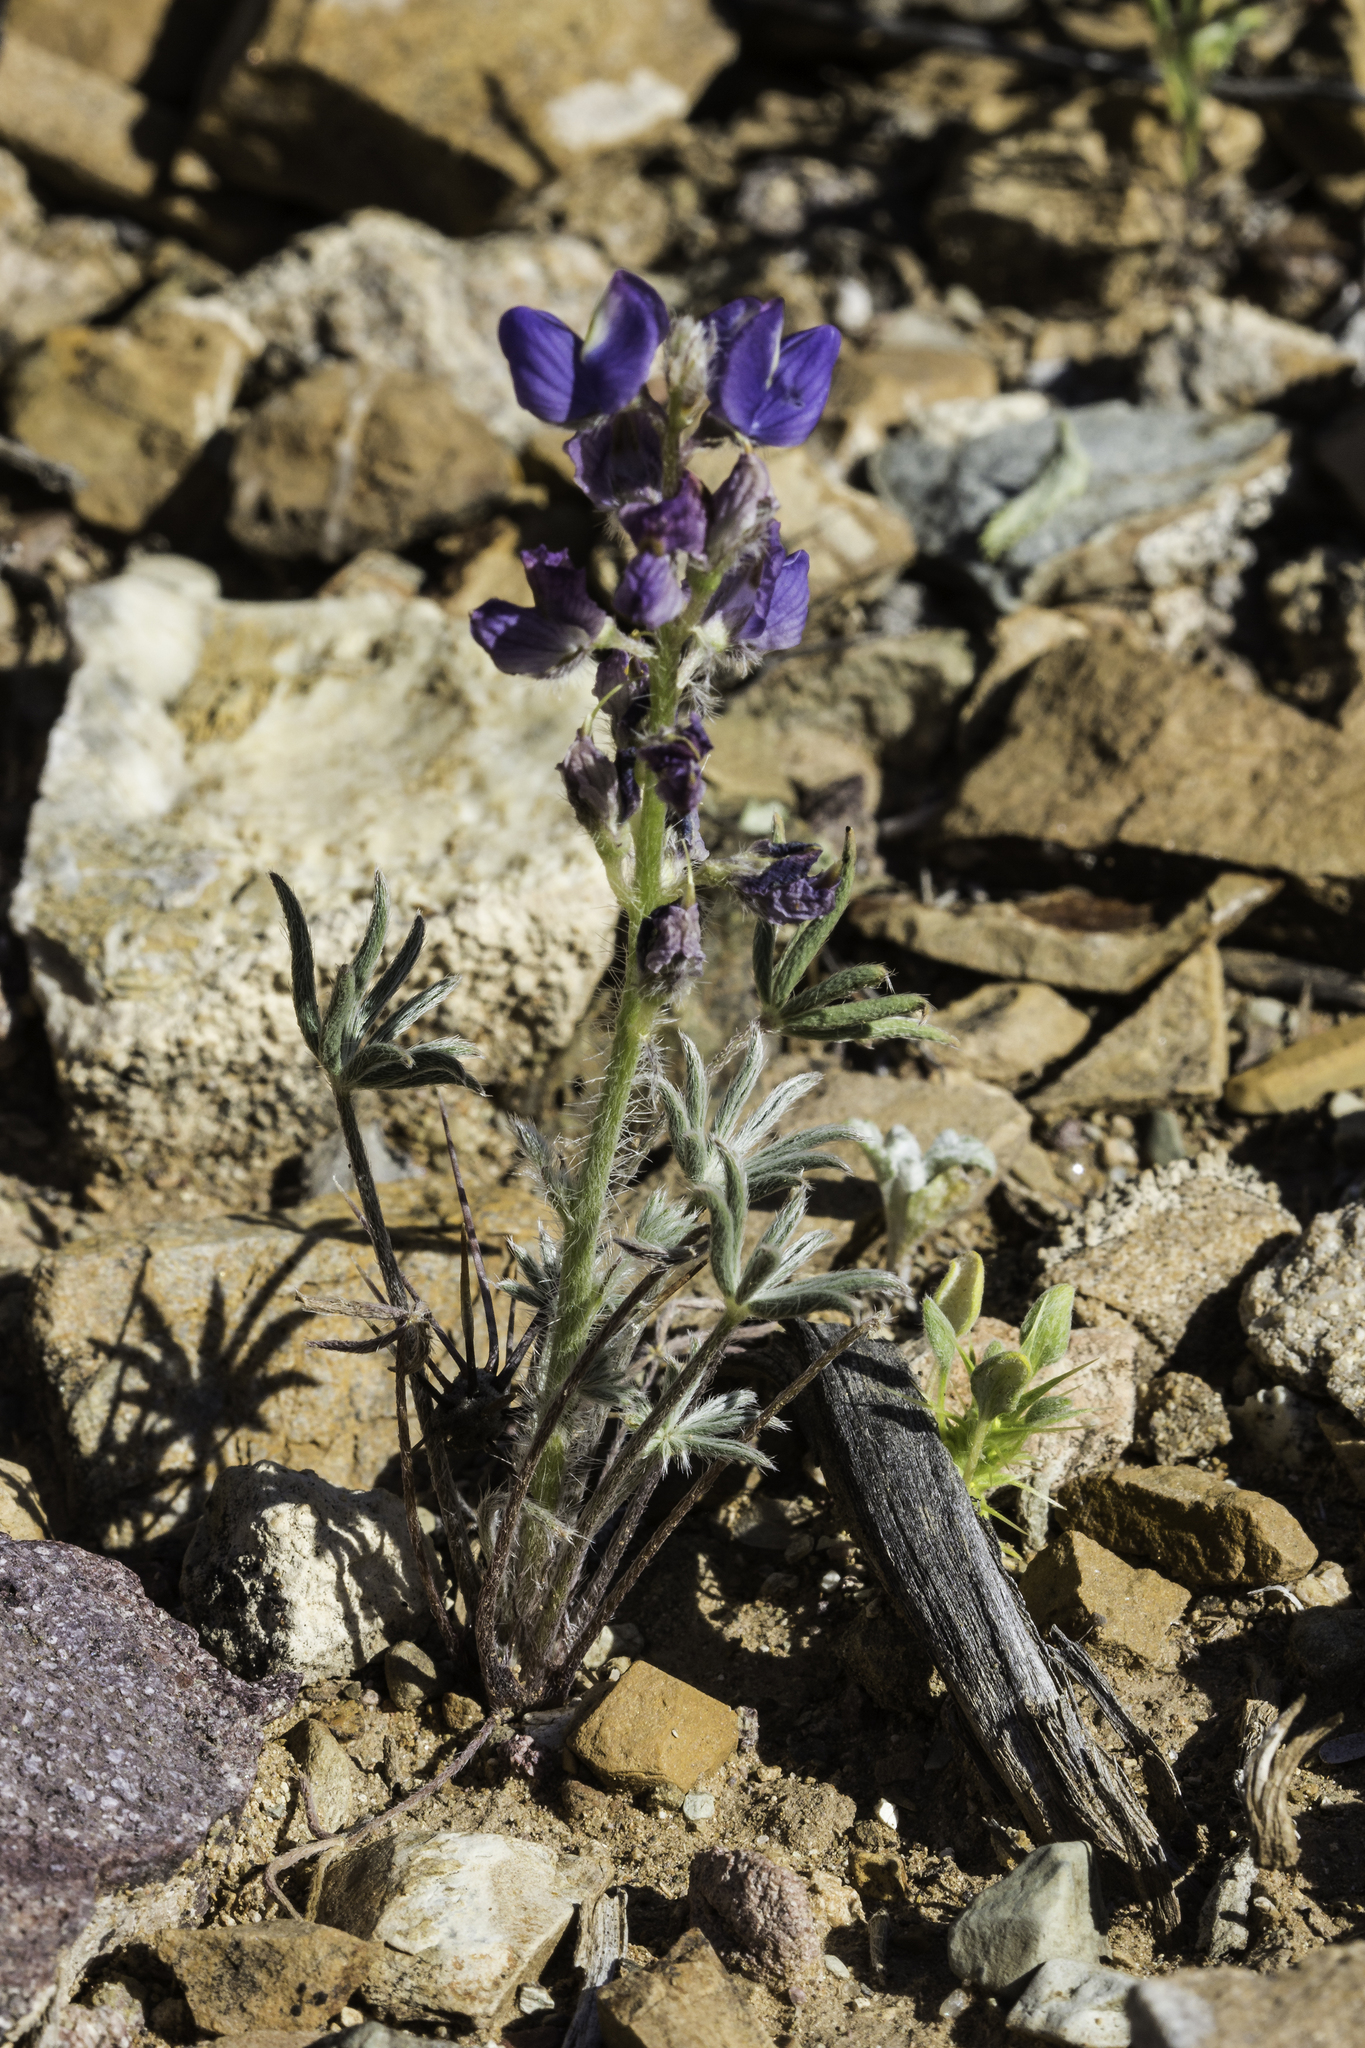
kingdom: Plantae
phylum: Tracheophyta
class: Magnoliopsida
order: Fabales
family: Fabaceae
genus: Lupinus
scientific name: Lupinus sparsiflorus
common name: Coulter's lupine
